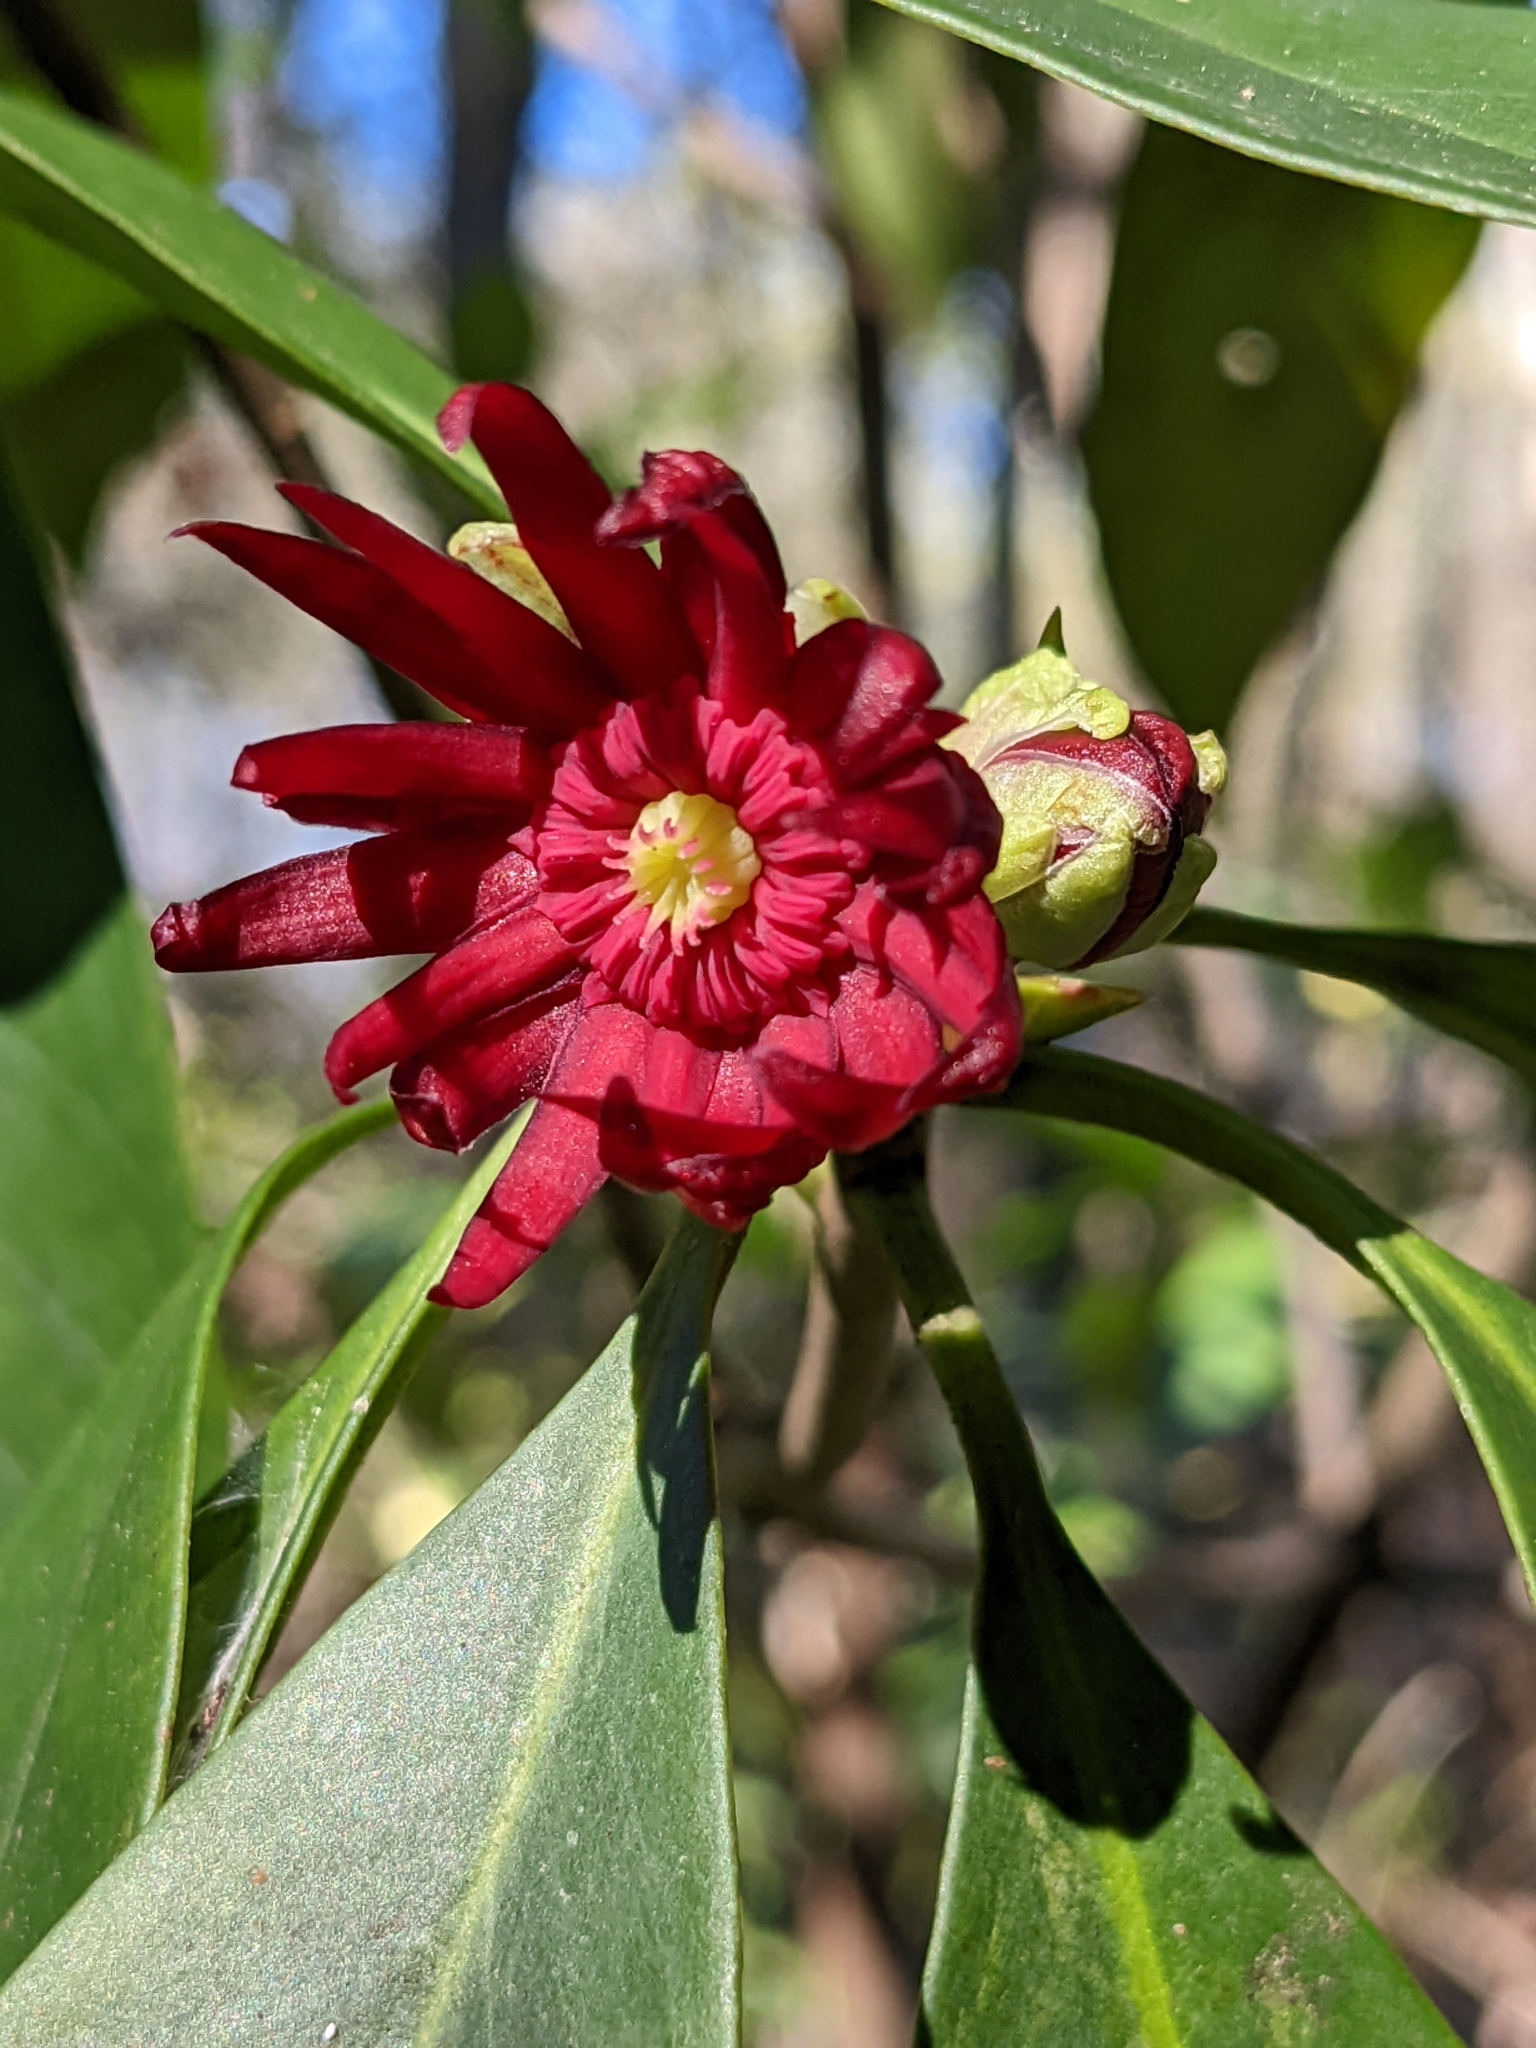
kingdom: Plantae
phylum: Tracheophyta
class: Magnoliopsida
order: Austrobaileyales
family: Schisandraceae
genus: Illicium
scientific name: Illicium floridanum
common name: Florida anisetree
